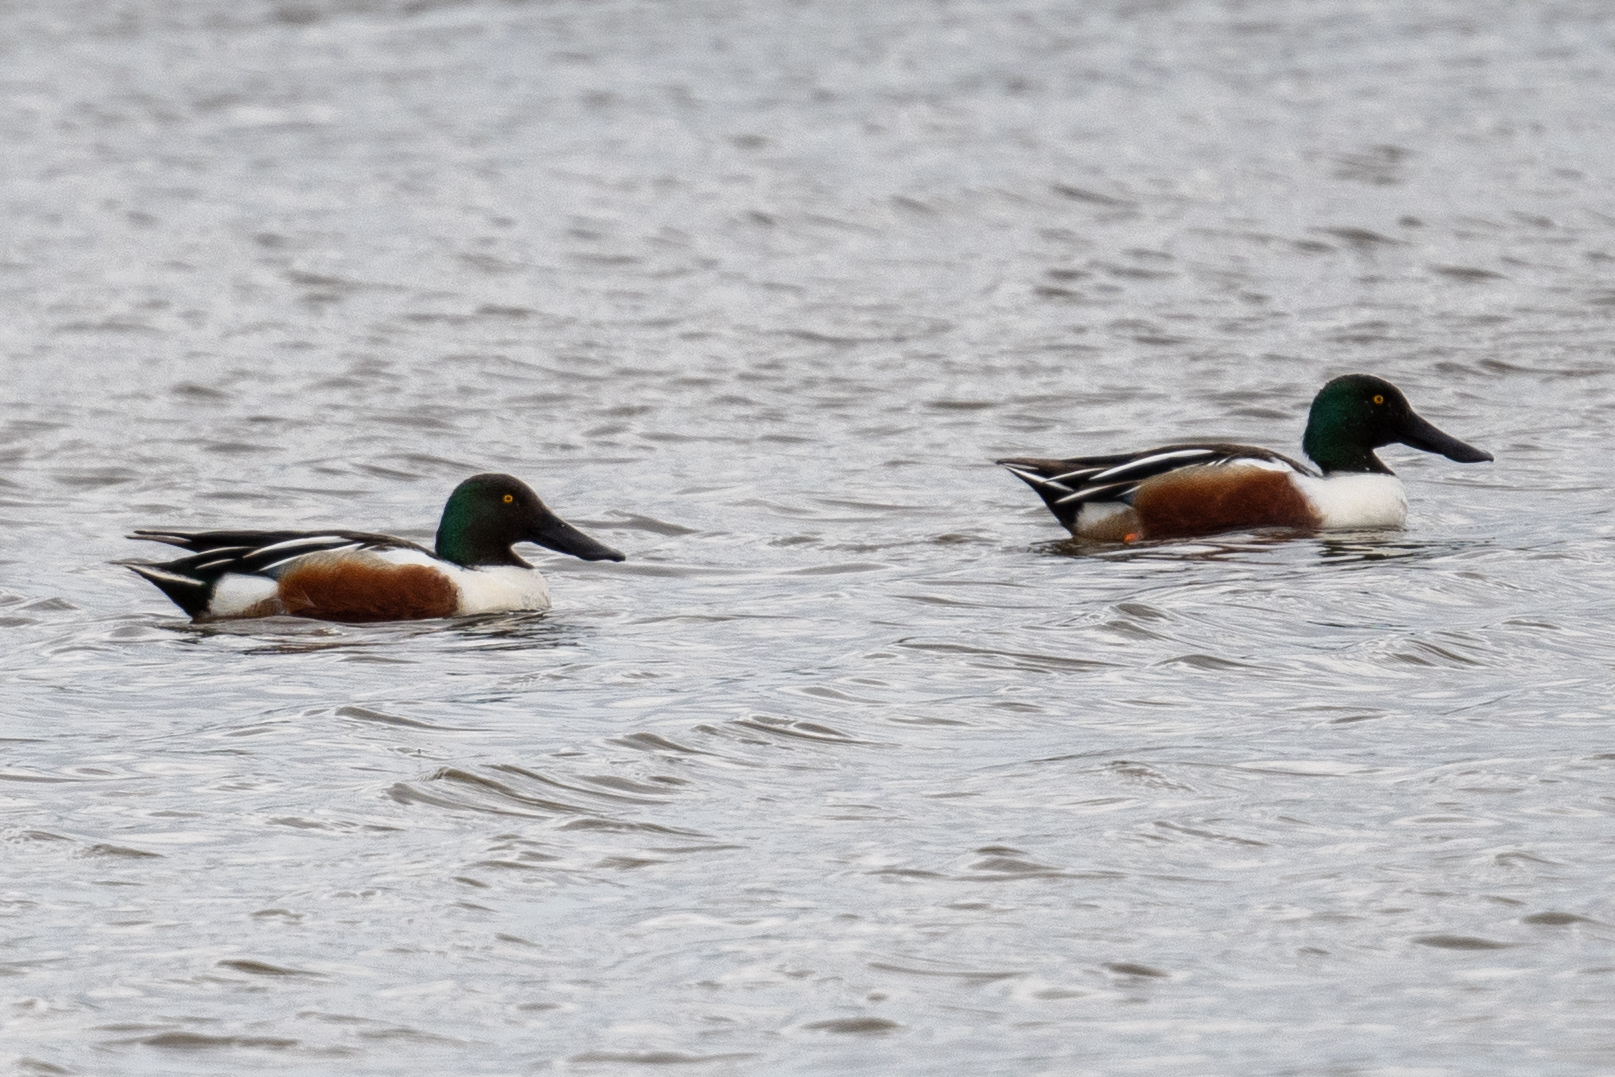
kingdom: Animalia
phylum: Chordata
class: Aves
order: Anseriformes
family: Anatidae
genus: Spatula
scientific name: Spatula clypeata
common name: Northern shoveler
